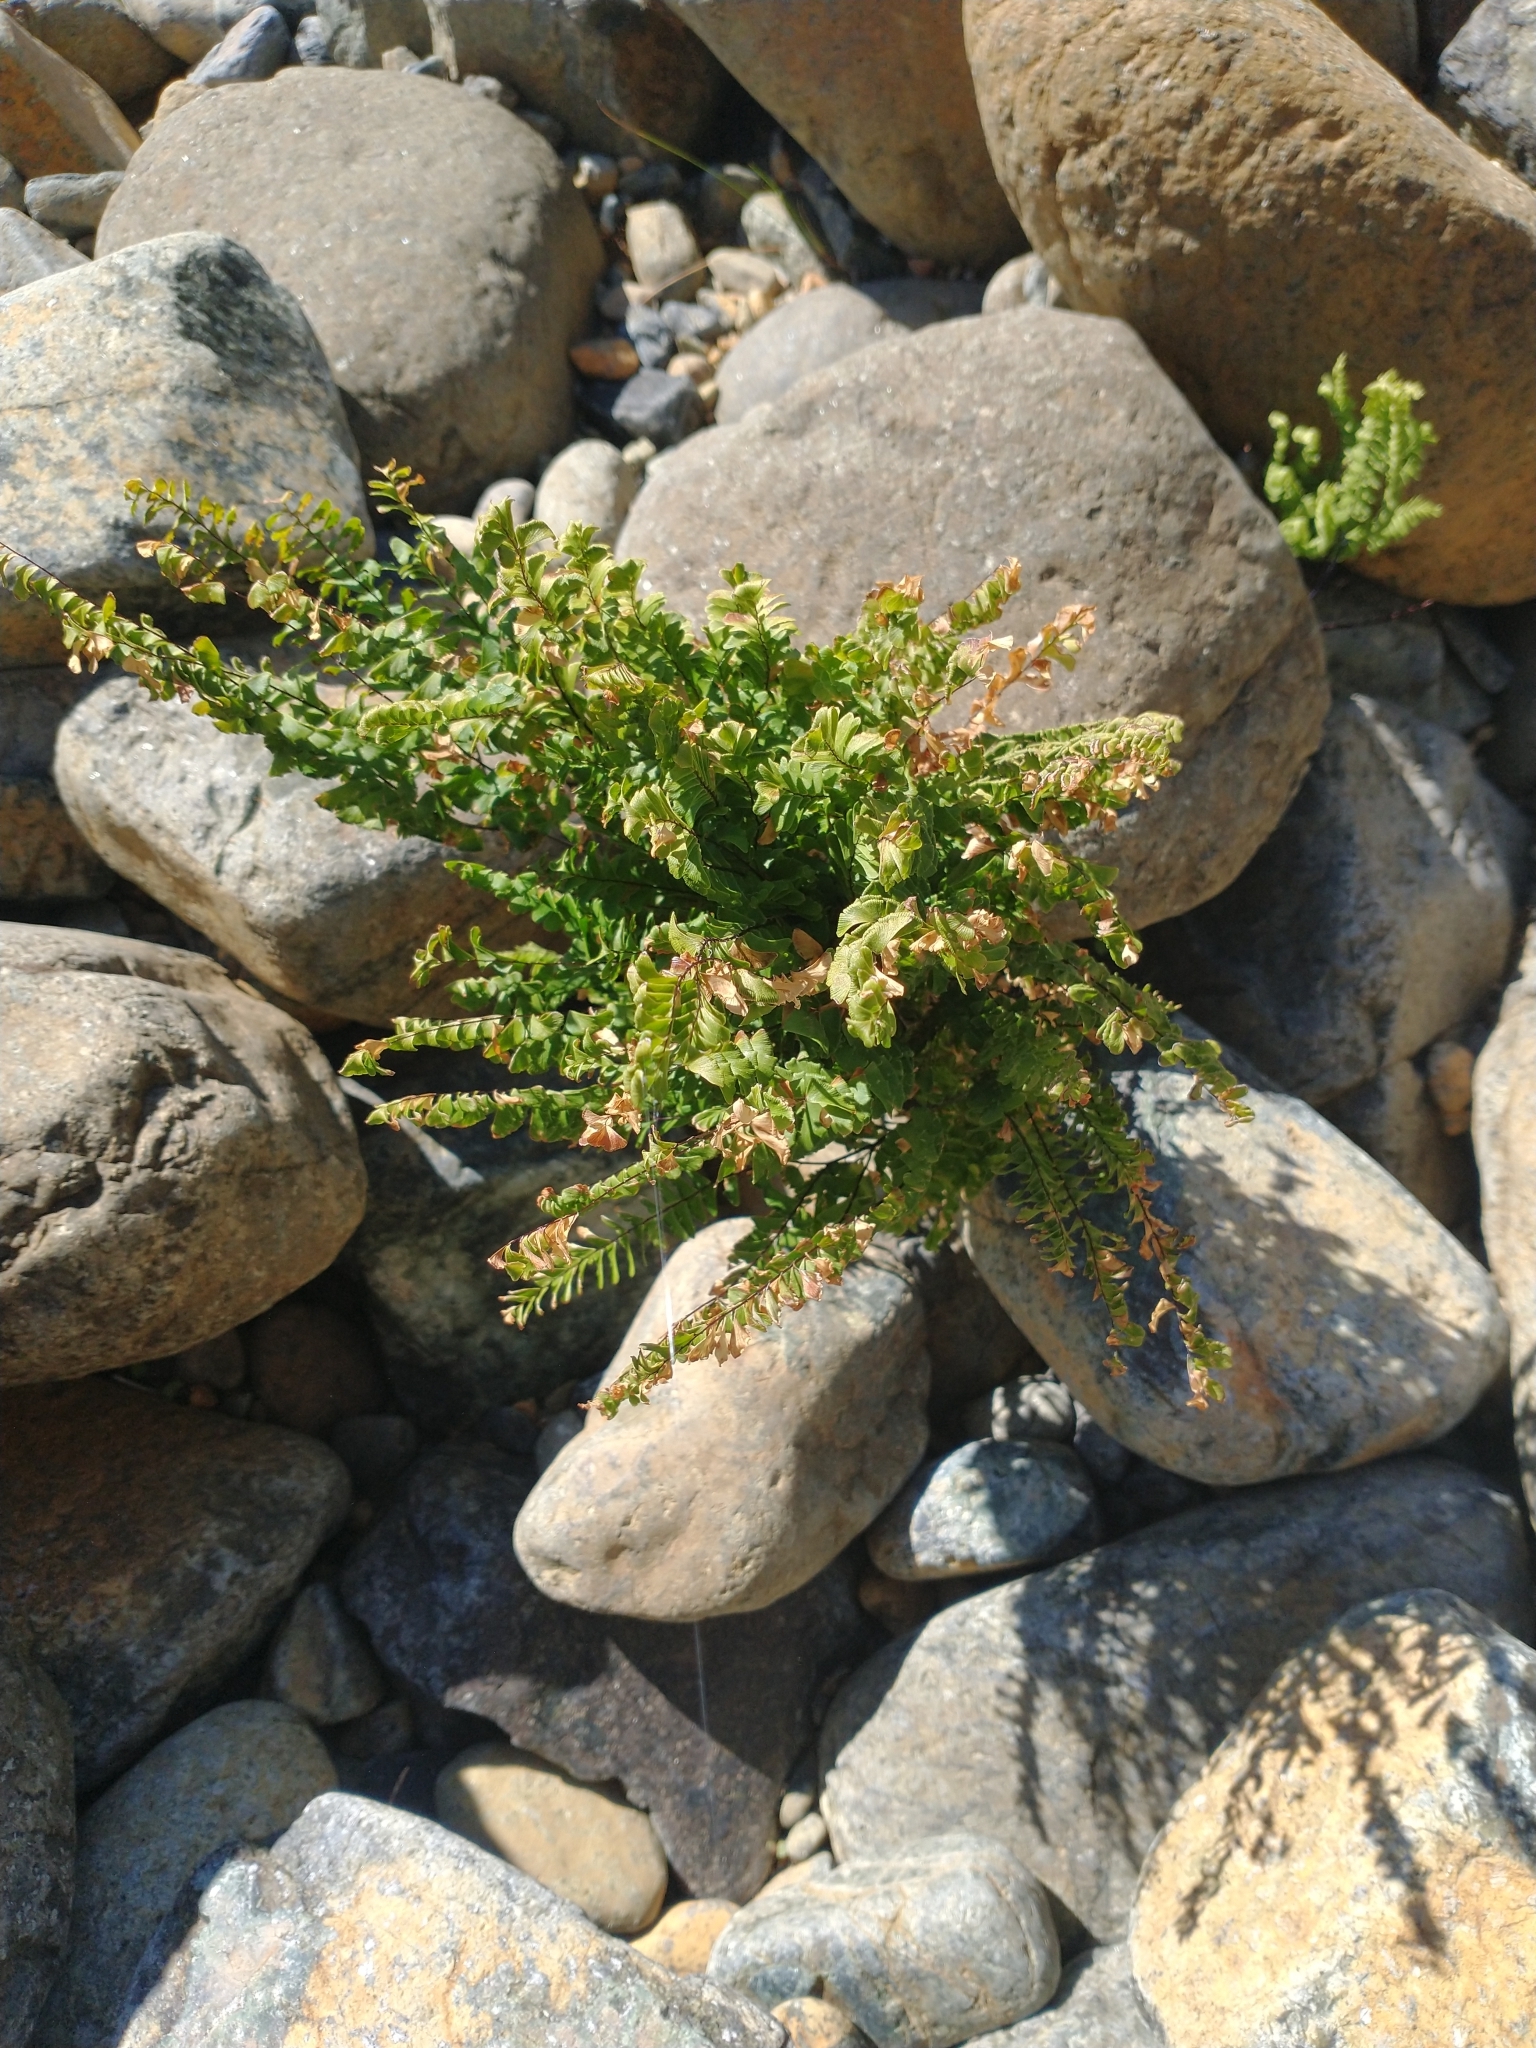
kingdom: Plantae
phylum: Tracheophyta
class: Polypodiopsida
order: Polypodiales
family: Pteridaceae
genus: Adiantum
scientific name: Adiantum aleuticum
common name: Aleutian maidenhair fern
